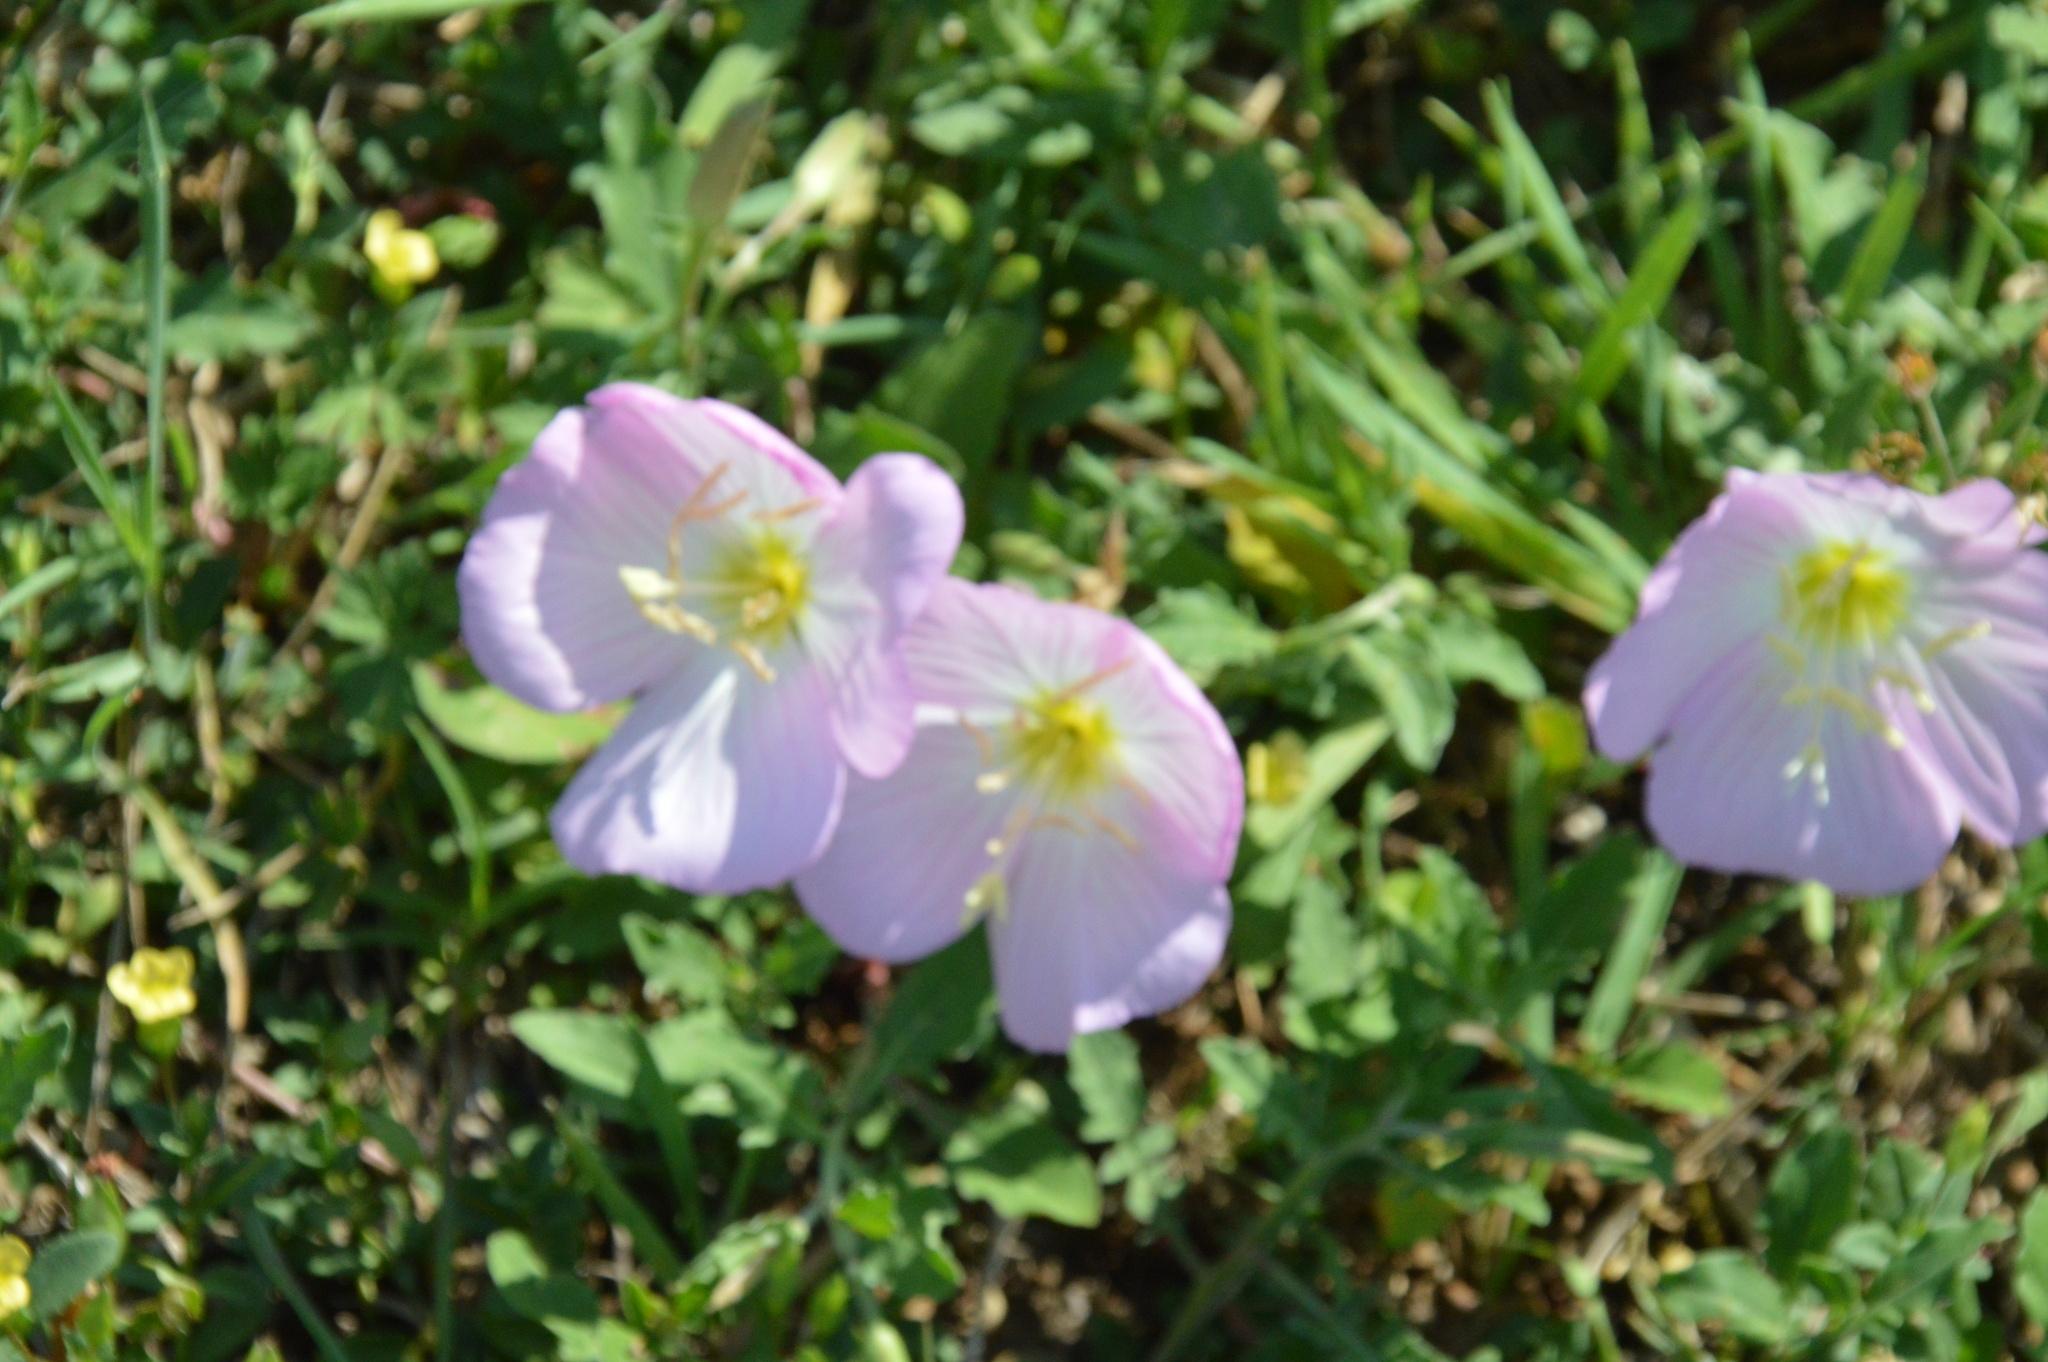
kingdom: Plantae
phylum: Tracheophyta
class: Magnoliopsida
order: Myrtales
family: Onagraceae
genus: Oenothera
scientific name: Oenothera speciosa
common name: White evening-primrose
